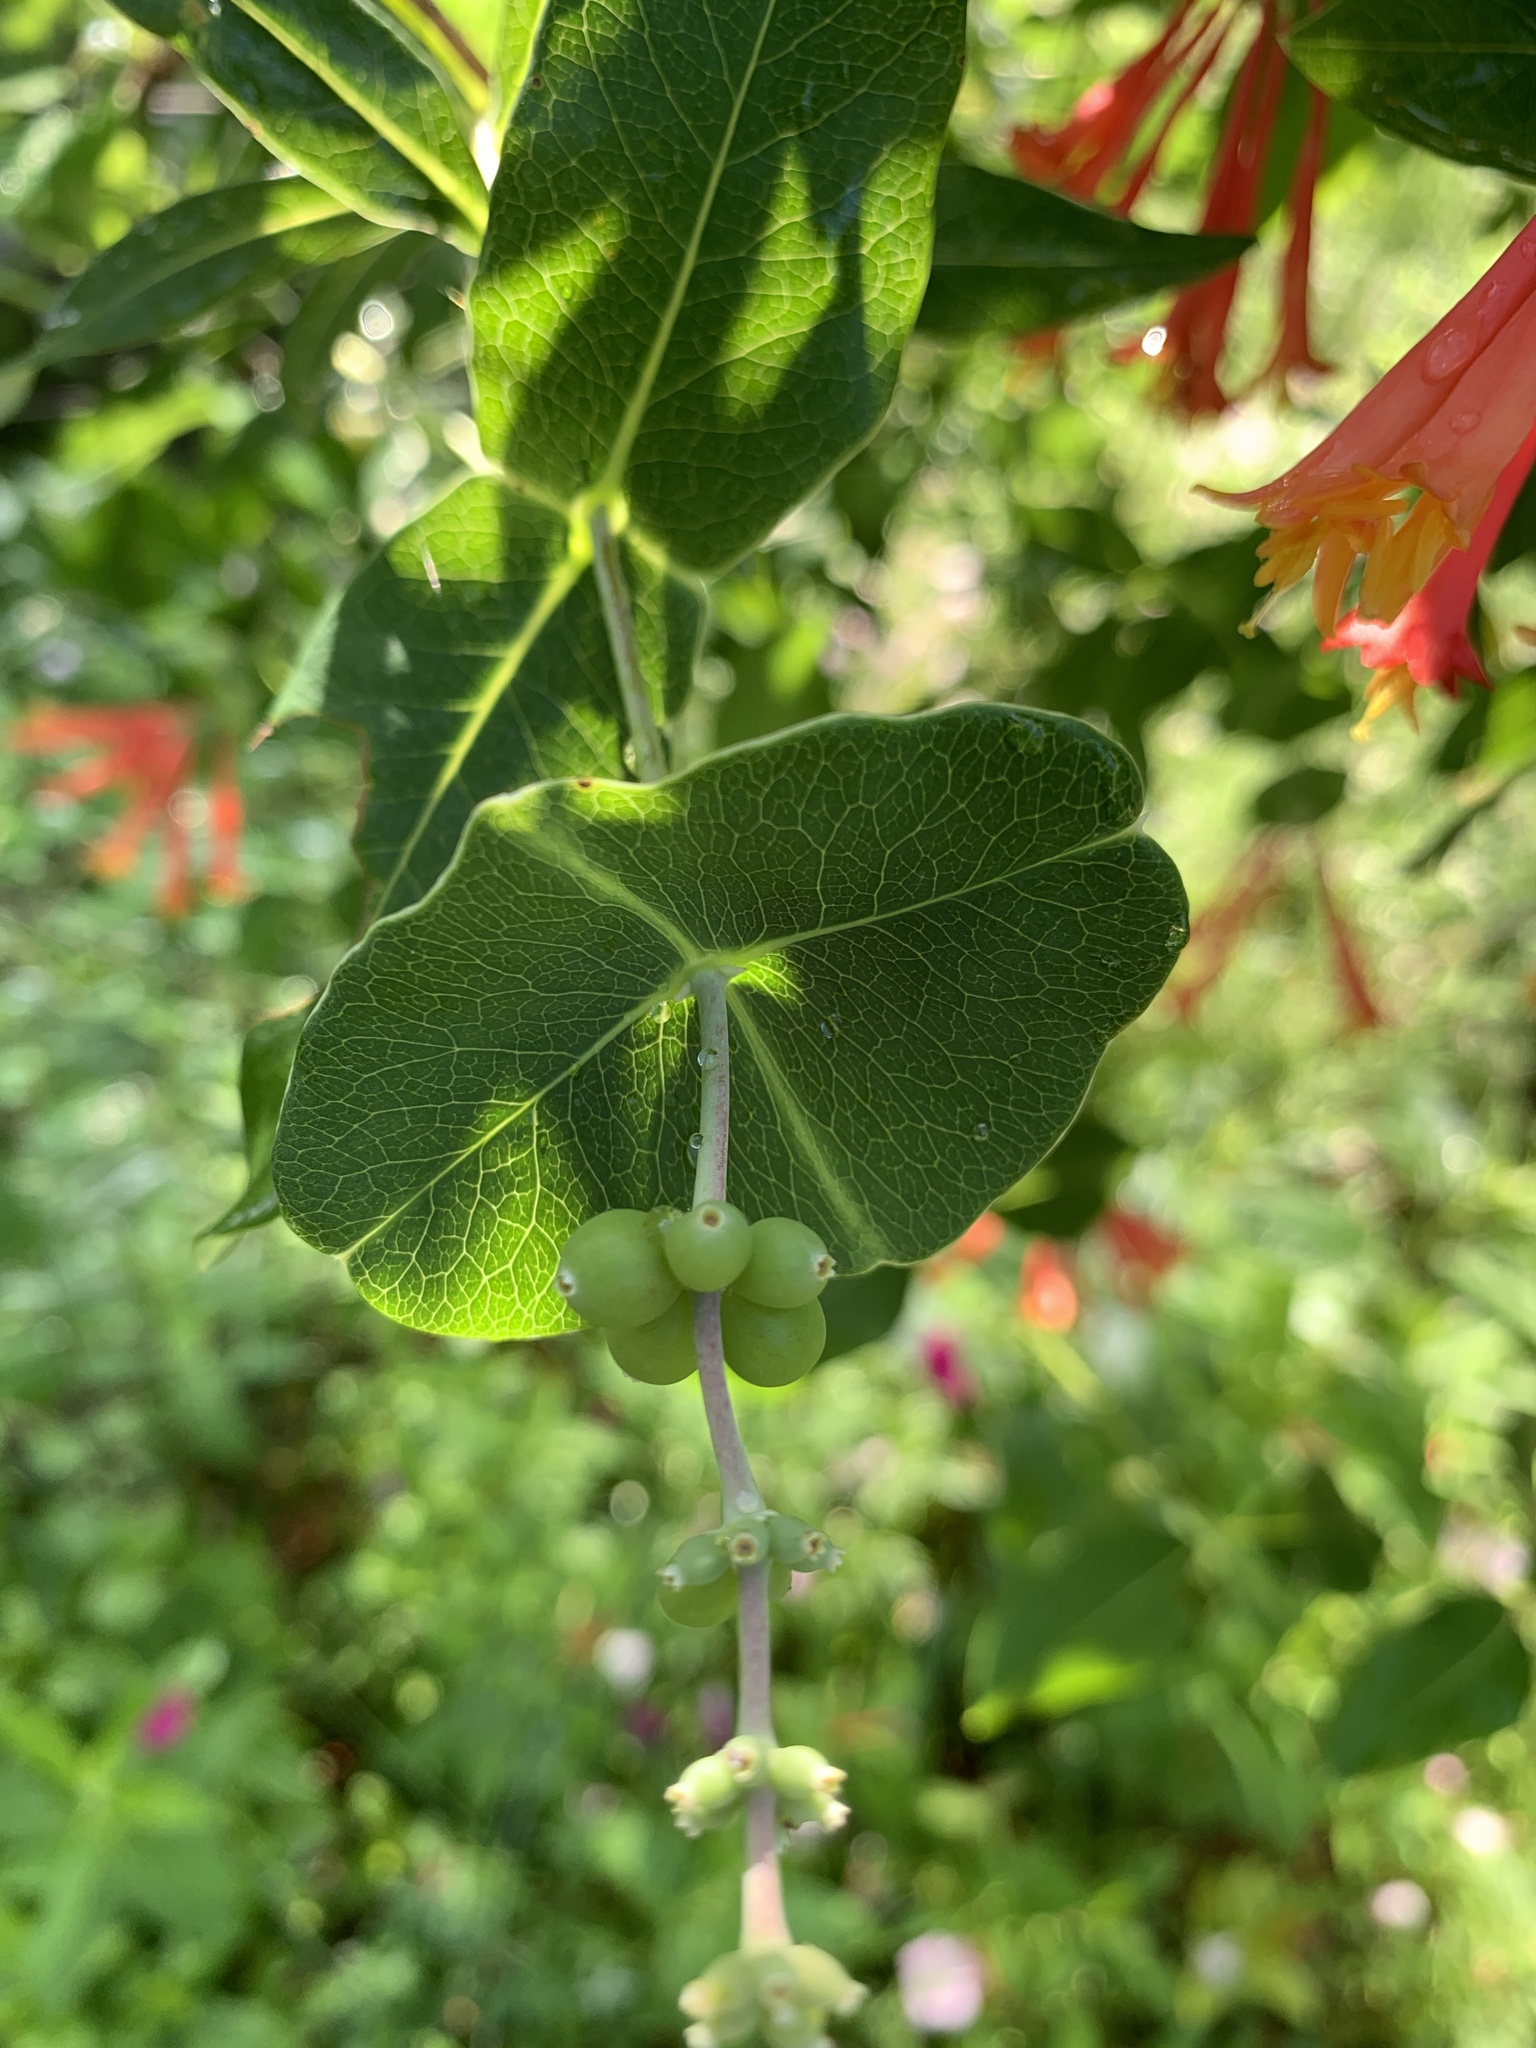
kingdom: Plantae
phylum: Tracheophyta
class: Magnoliopsida
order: Dipsacales
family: Caprifoliaceae
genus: Lonicera
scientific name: Lonicera sempervirens
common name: Coral honeysuckle
